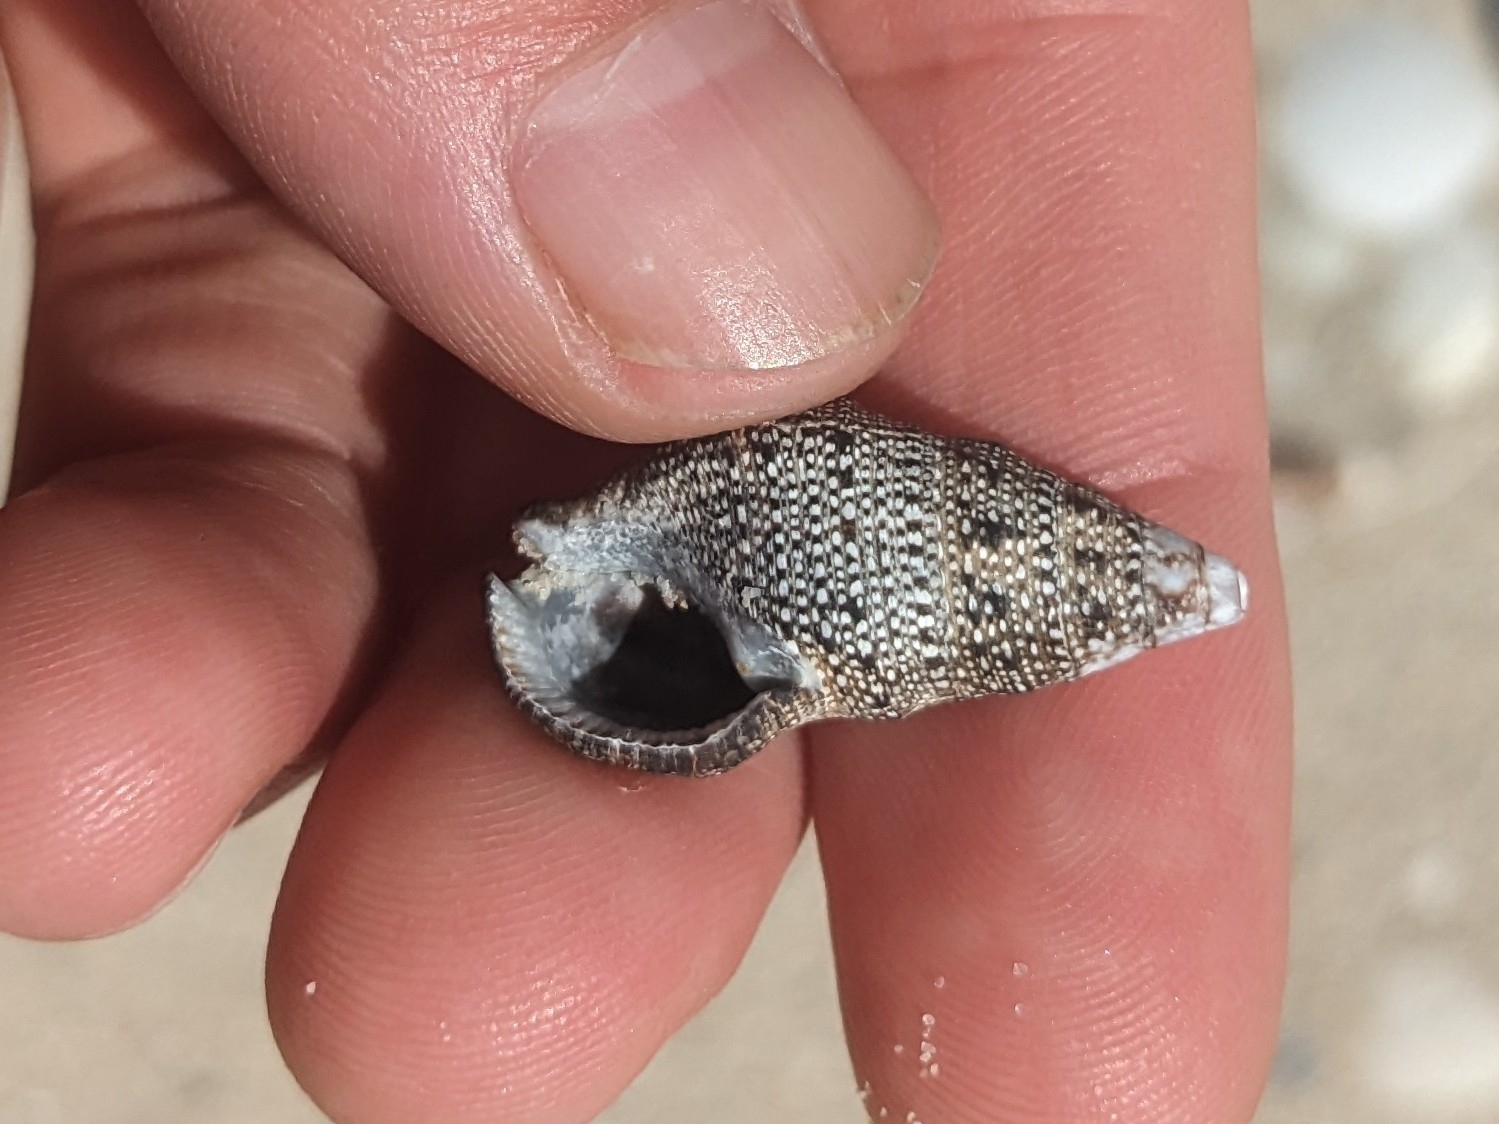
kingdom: Animalia
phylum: Mollusca
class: Gastropoda
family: Cerithiidae
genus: Cerithium
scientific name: Cerithium stercusmuscarum
